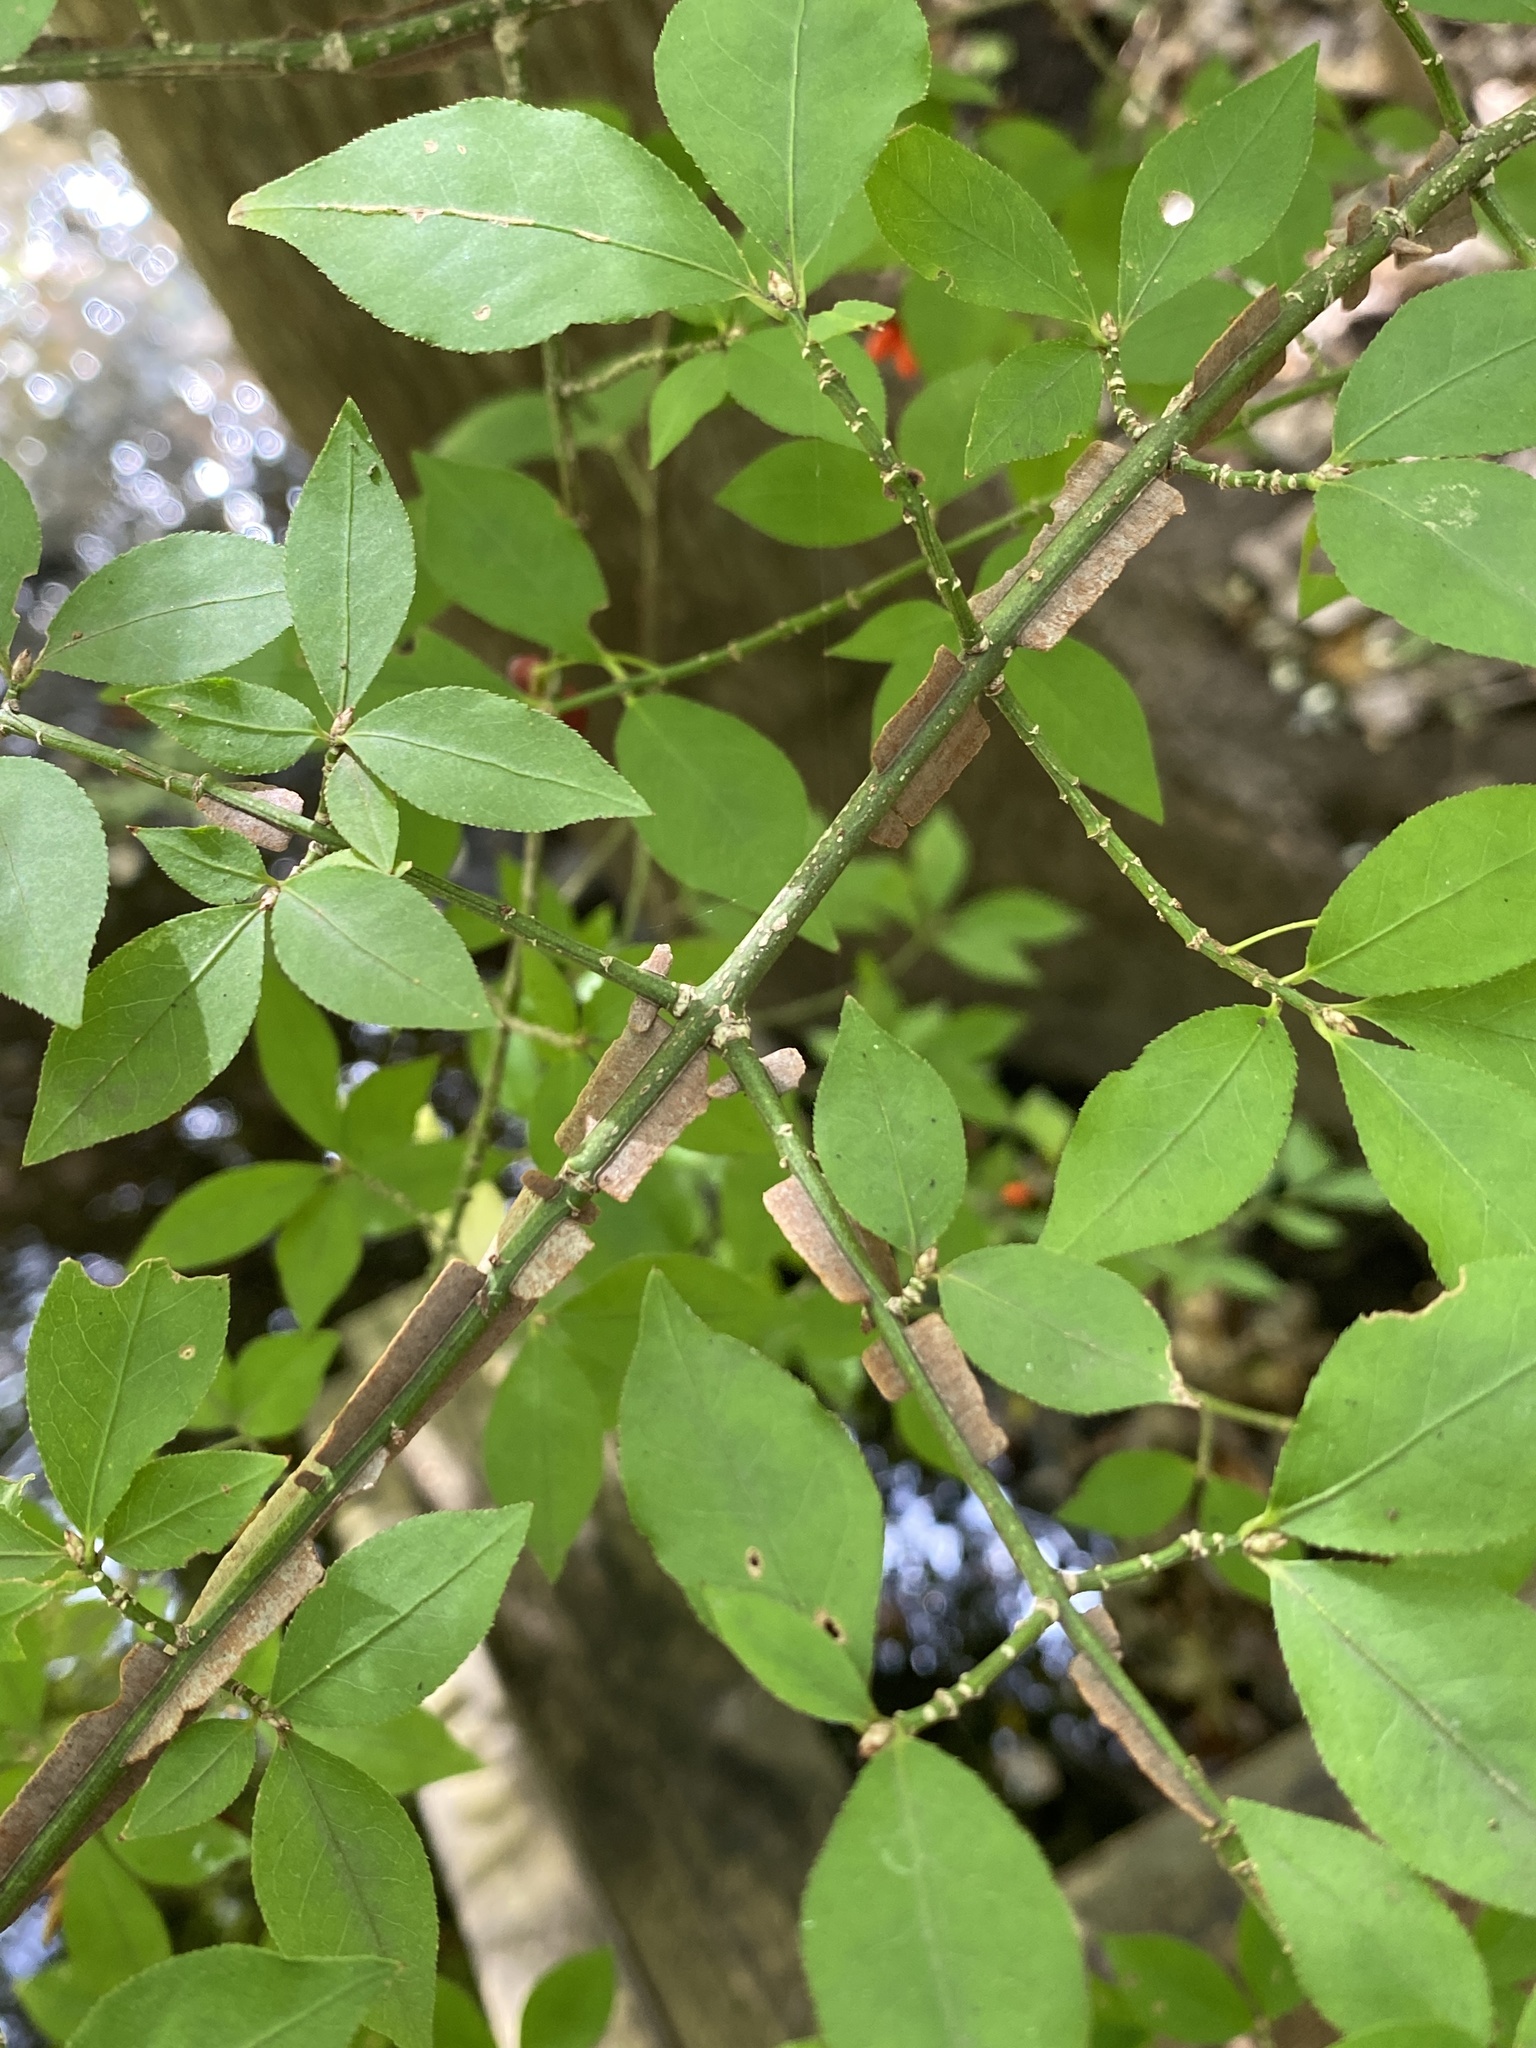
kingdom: Plantae
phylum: Tracheophyta
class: Magnoliopsida
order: Celastrales
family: Celastraceae
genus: Euonymus
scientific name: Euonymus alatus
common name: Winged euonymus
